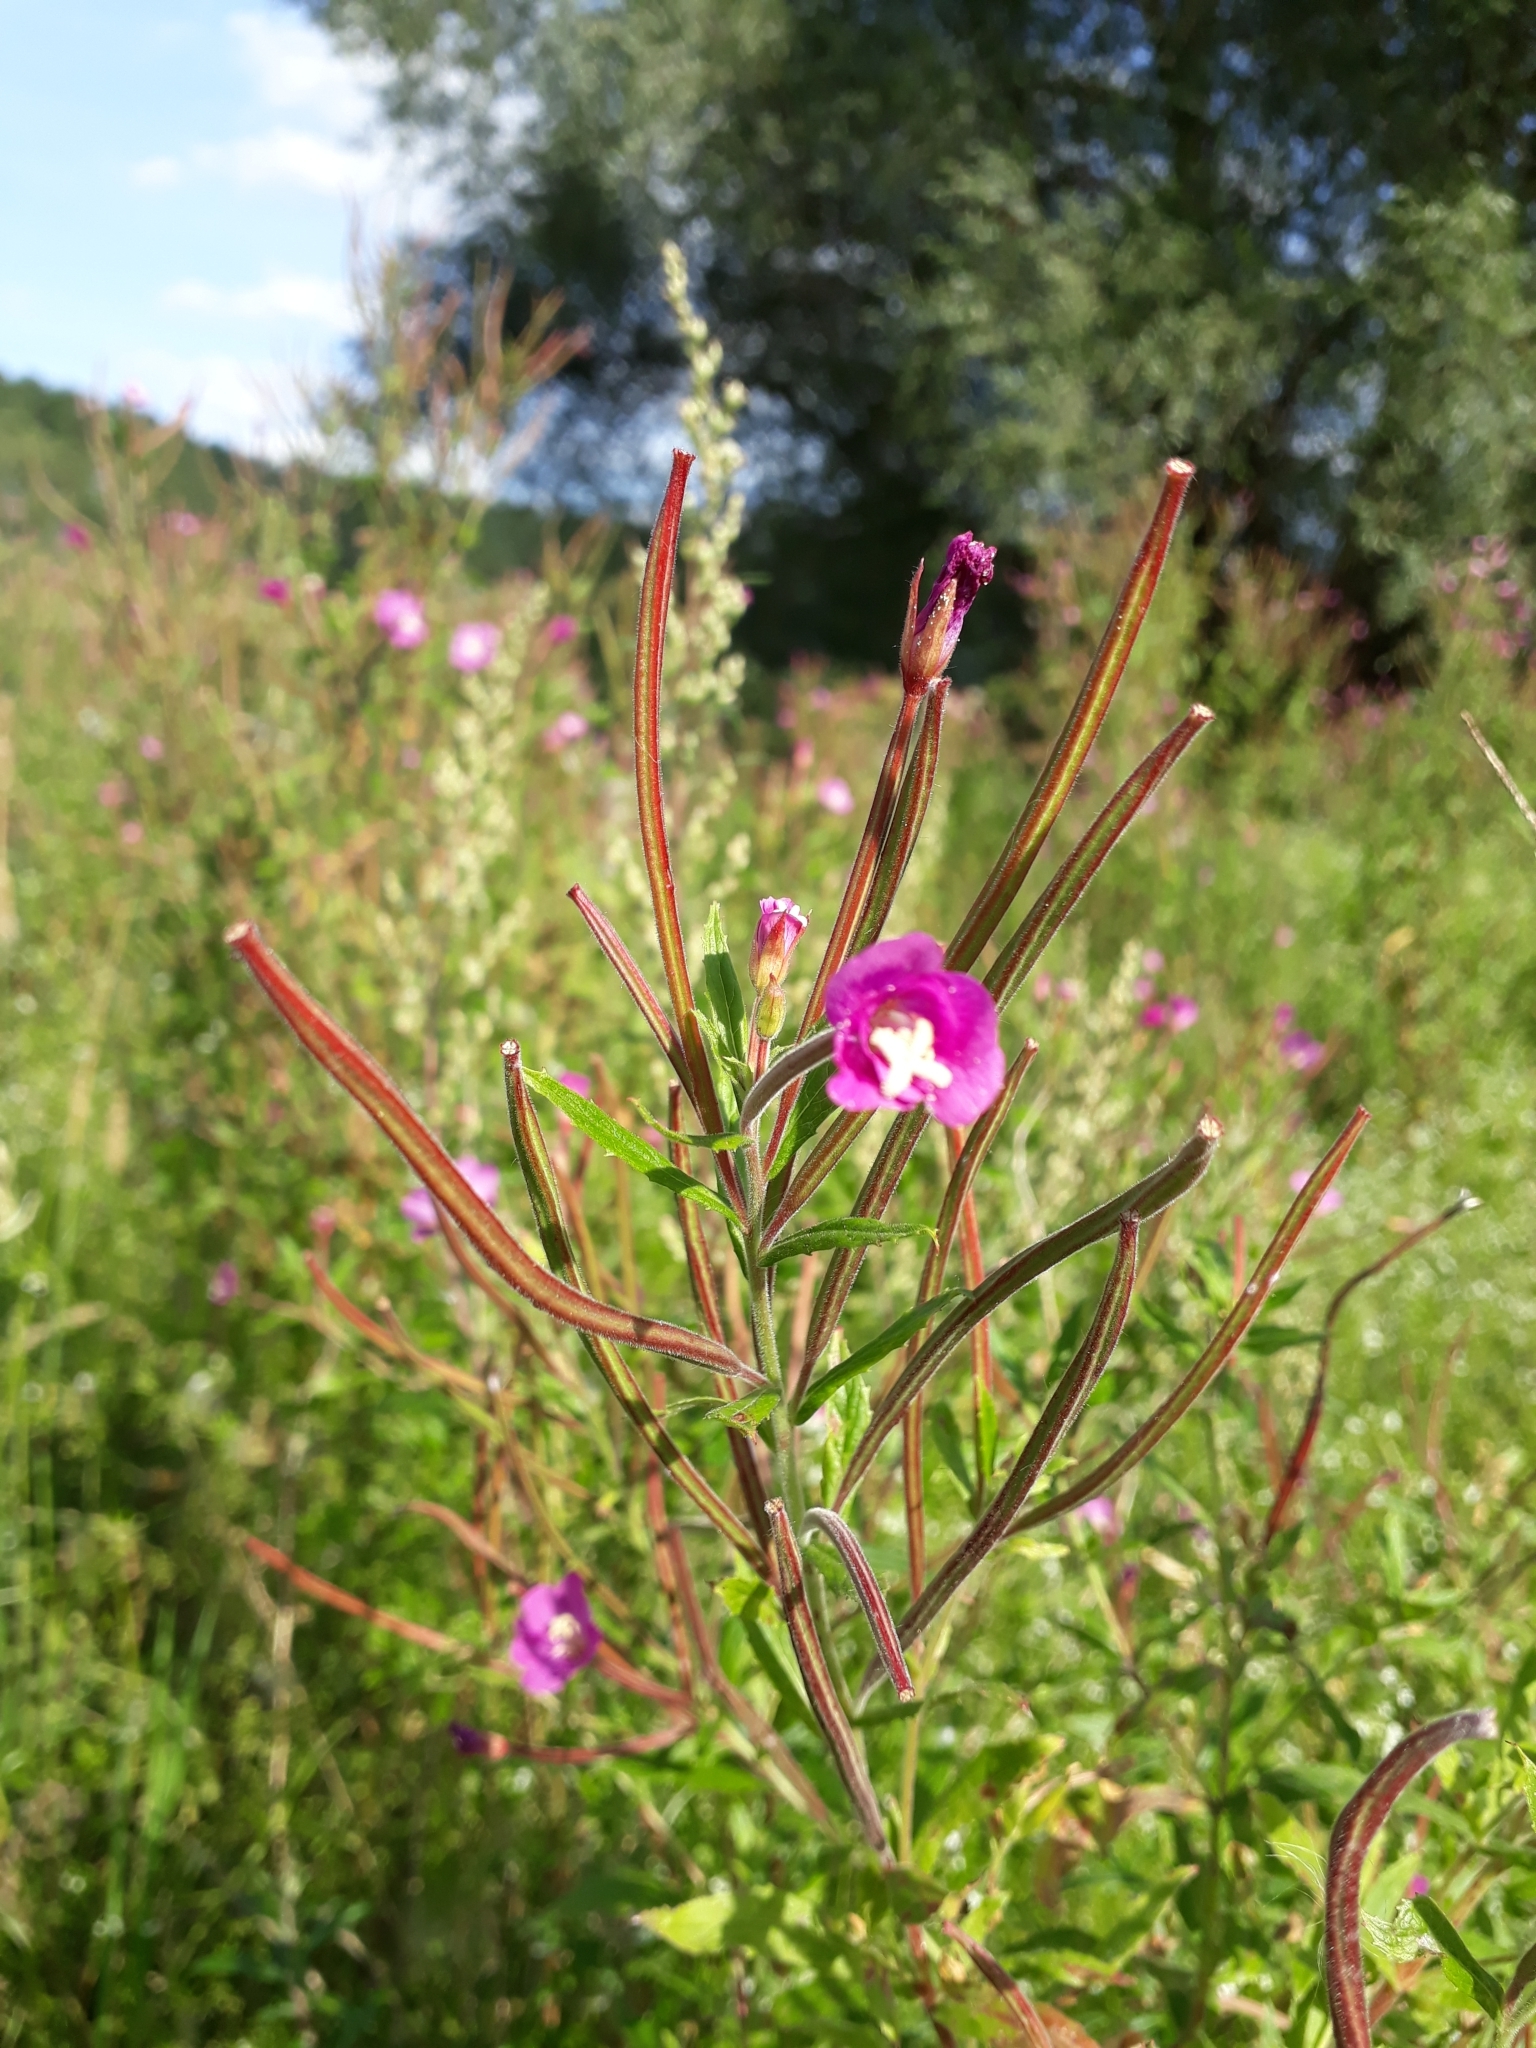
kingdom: Plantae
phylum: Tracheophyta
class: Magnoliopsida
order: Myrtales
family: Onagraceae
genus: Epilobium
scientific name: Epilobium hirsutum
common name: Great willowherb
